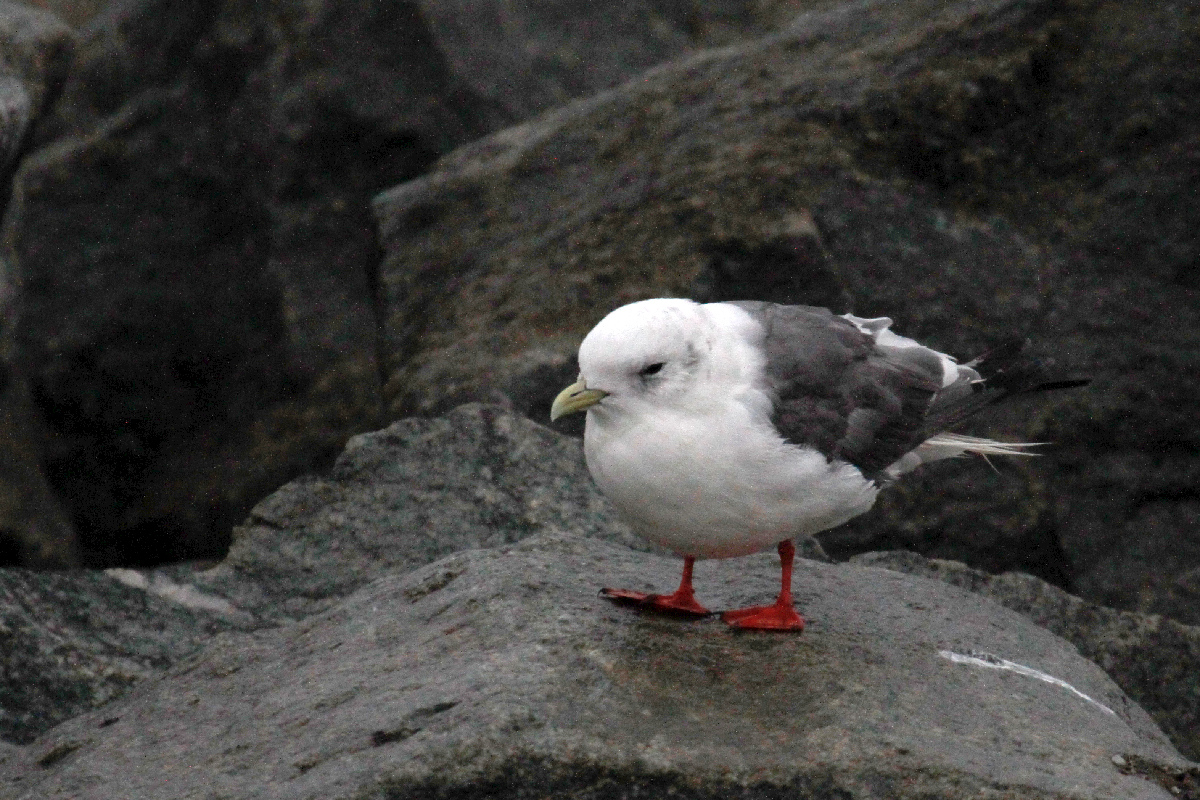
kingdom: Animalia
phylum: Chordata
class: Aves
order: Charadriiformes
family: Laridae
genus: Rissa
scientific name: Rissa brevirostris
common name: Red-legged kittiwake
